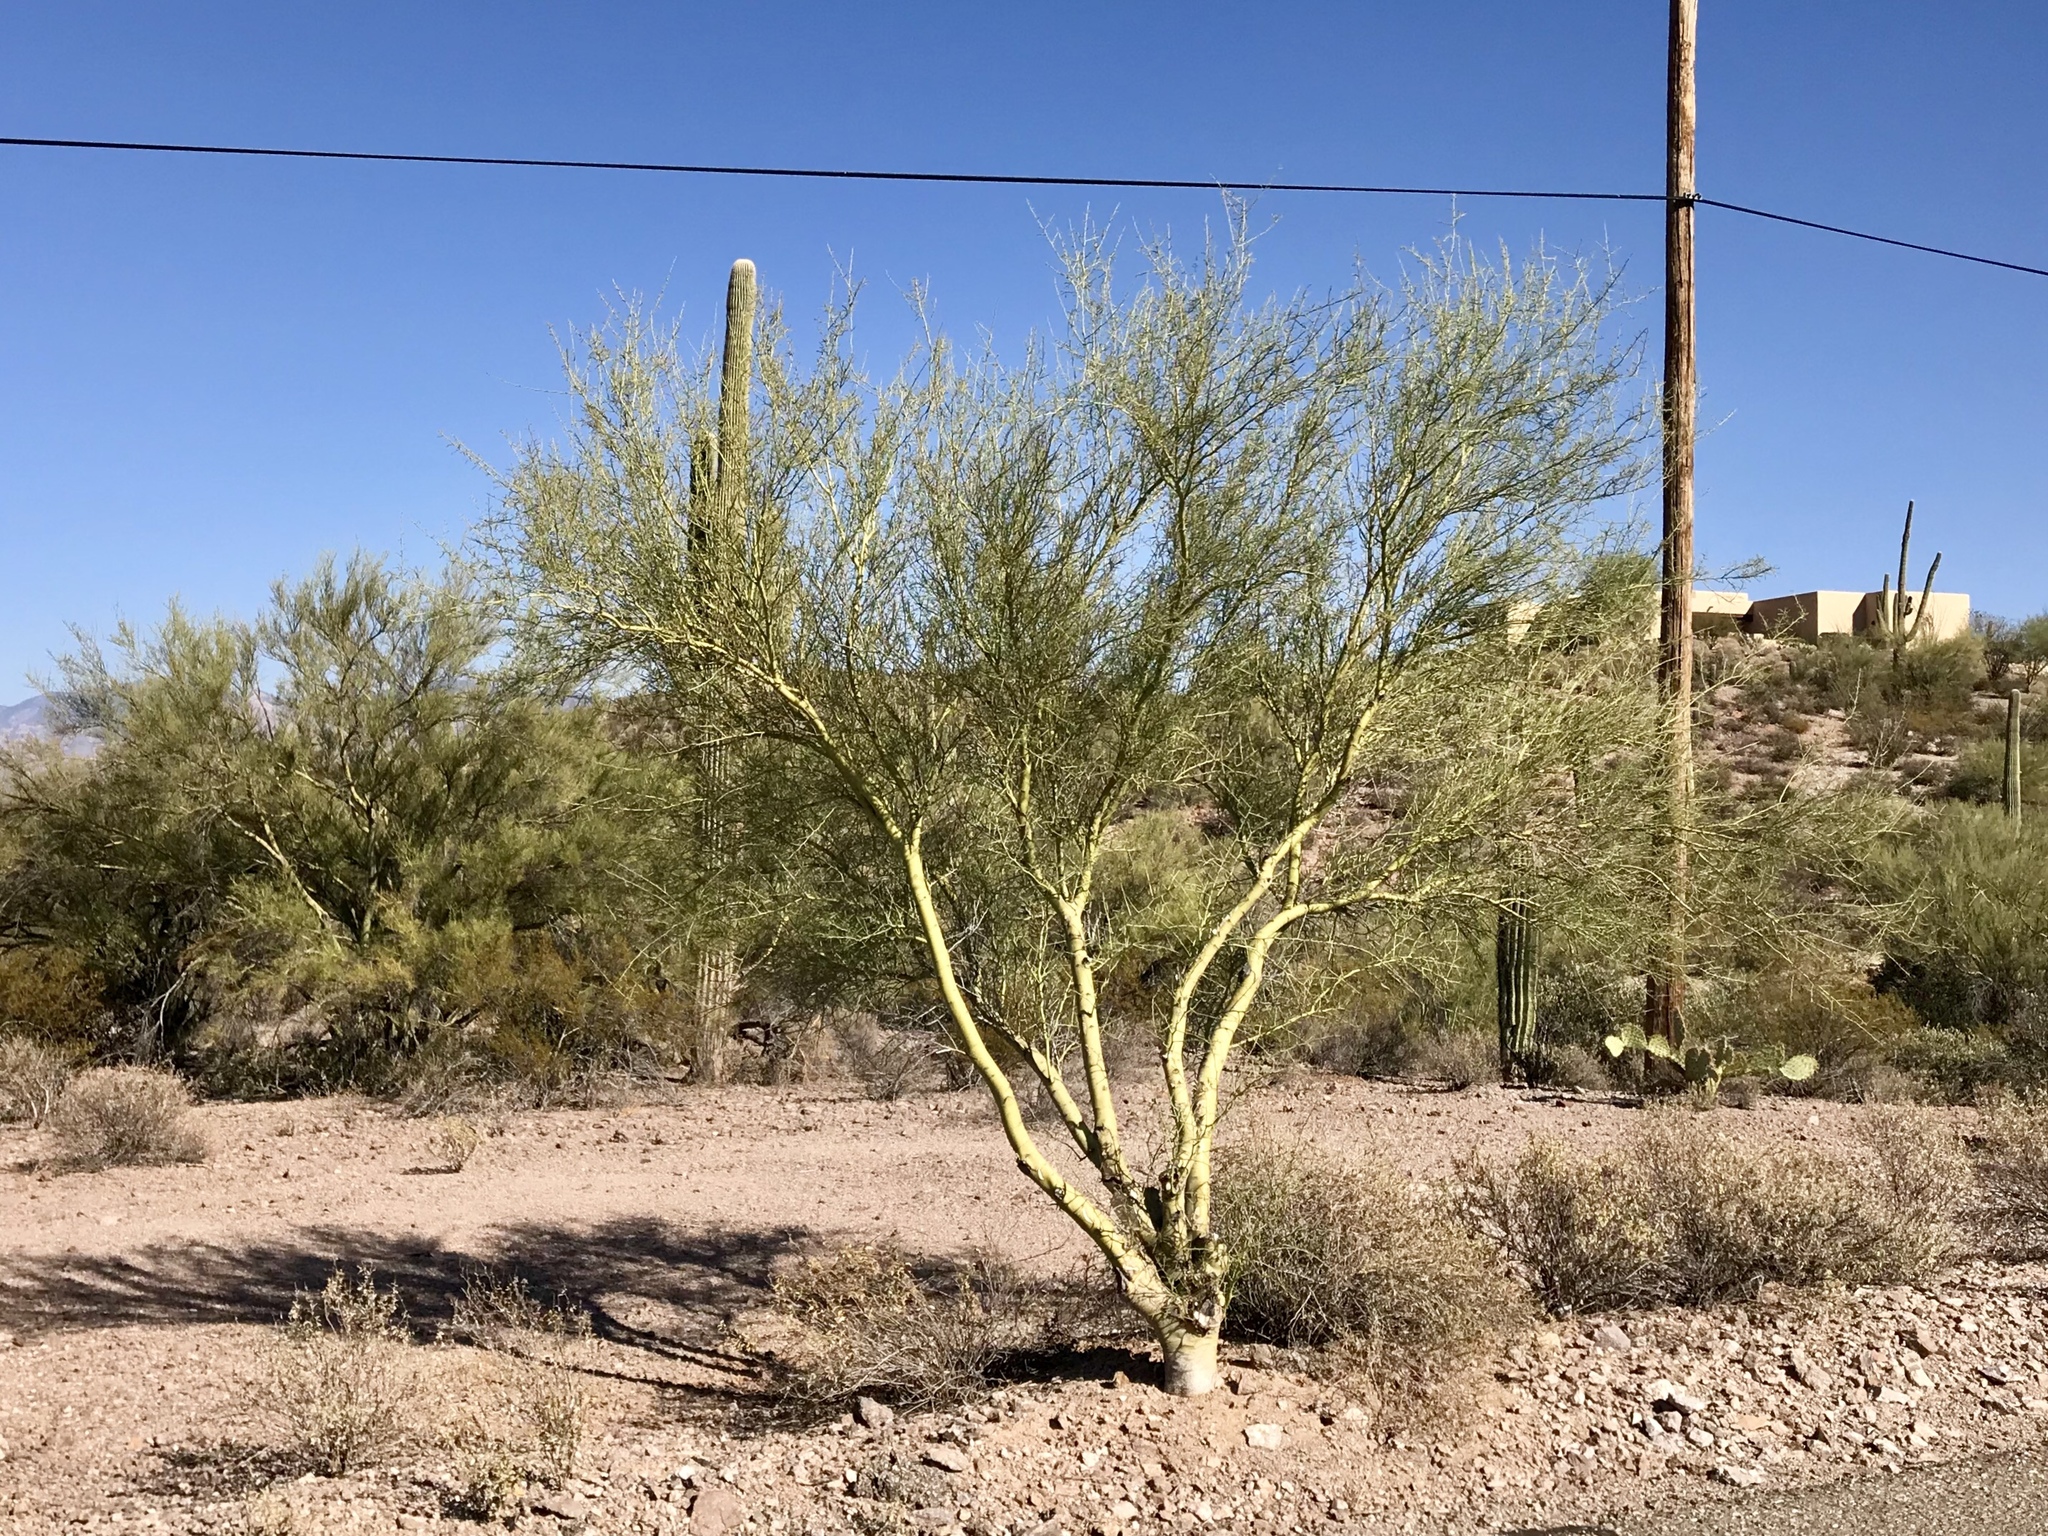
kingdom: Plantae
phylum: Tracheophyta
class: Magnoliopsida
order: Fabales
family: Fabaceae
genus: Parkinsonia
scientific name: Parkinsonia microphylla
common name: Yellow paloverde
